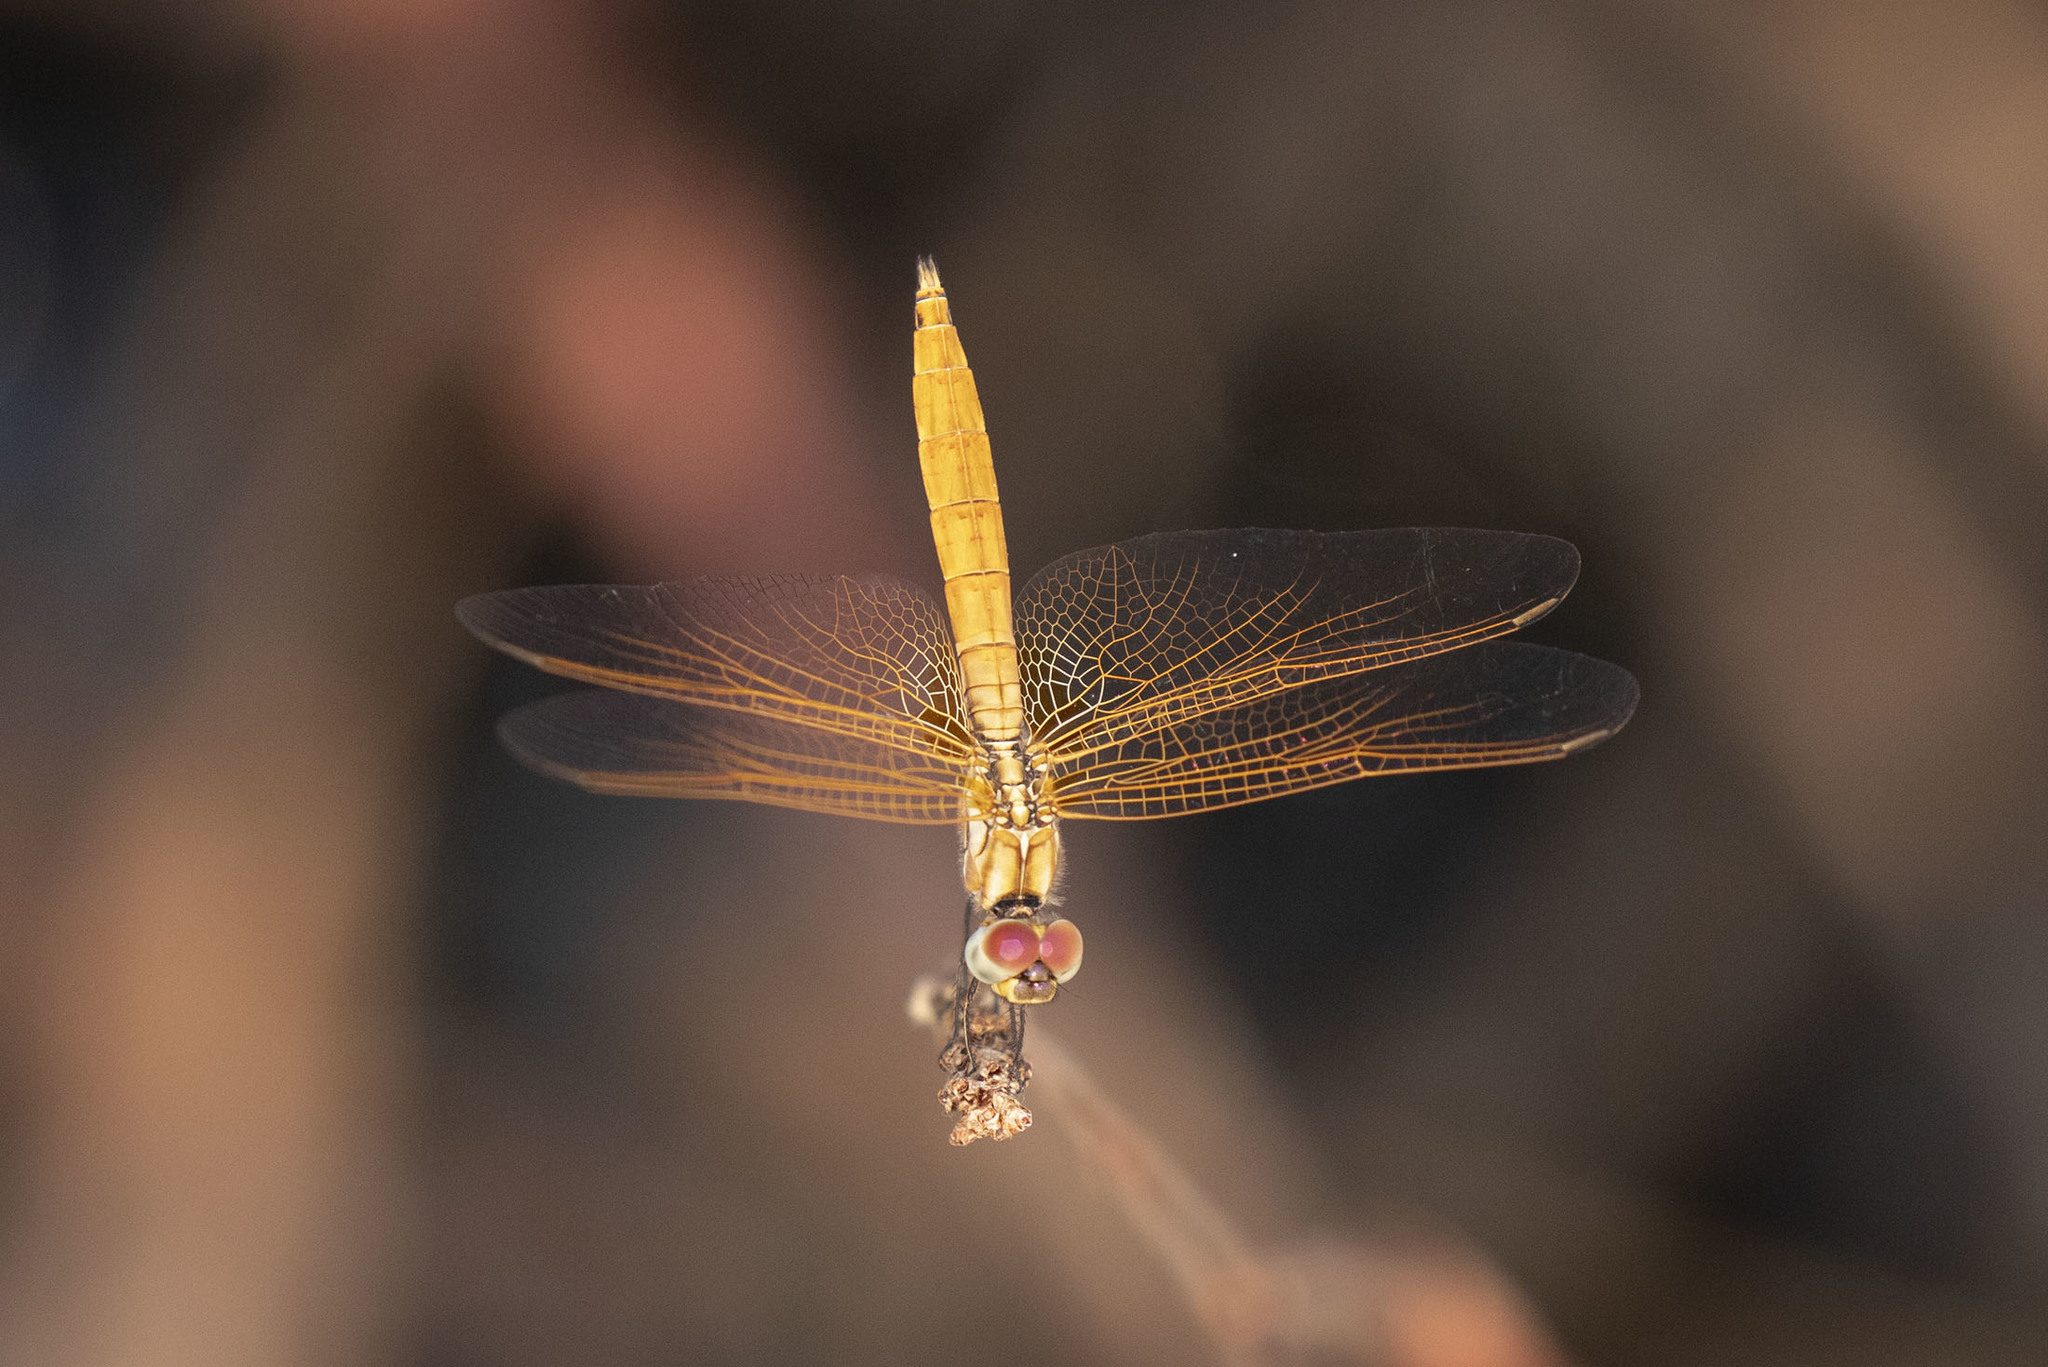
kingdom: Animalia
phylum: Arthropoda
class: Insecta
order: Odonata
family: Libellulidae
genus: Trithemis
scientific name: Trithemis aurora
